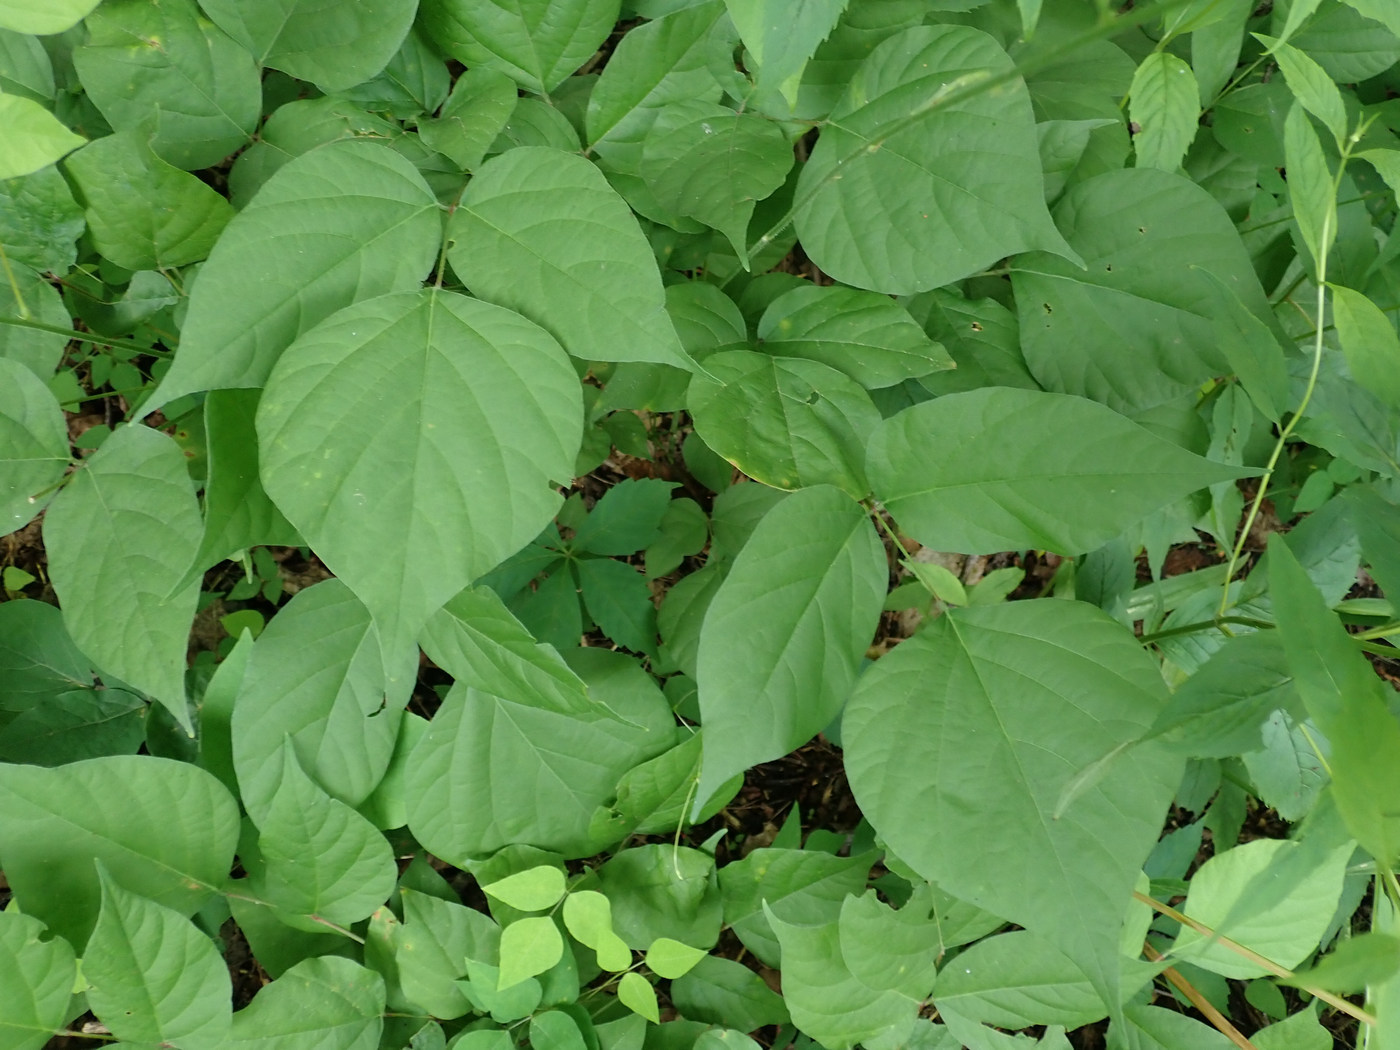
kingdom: Plantae
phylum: Tracheophyta
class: Magnoliopsida
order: Fabales
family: Fabaceae
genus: Hylodesmum
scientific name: Hylodesmum glutinosum
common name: Clustered-leaved tick-trefoil
